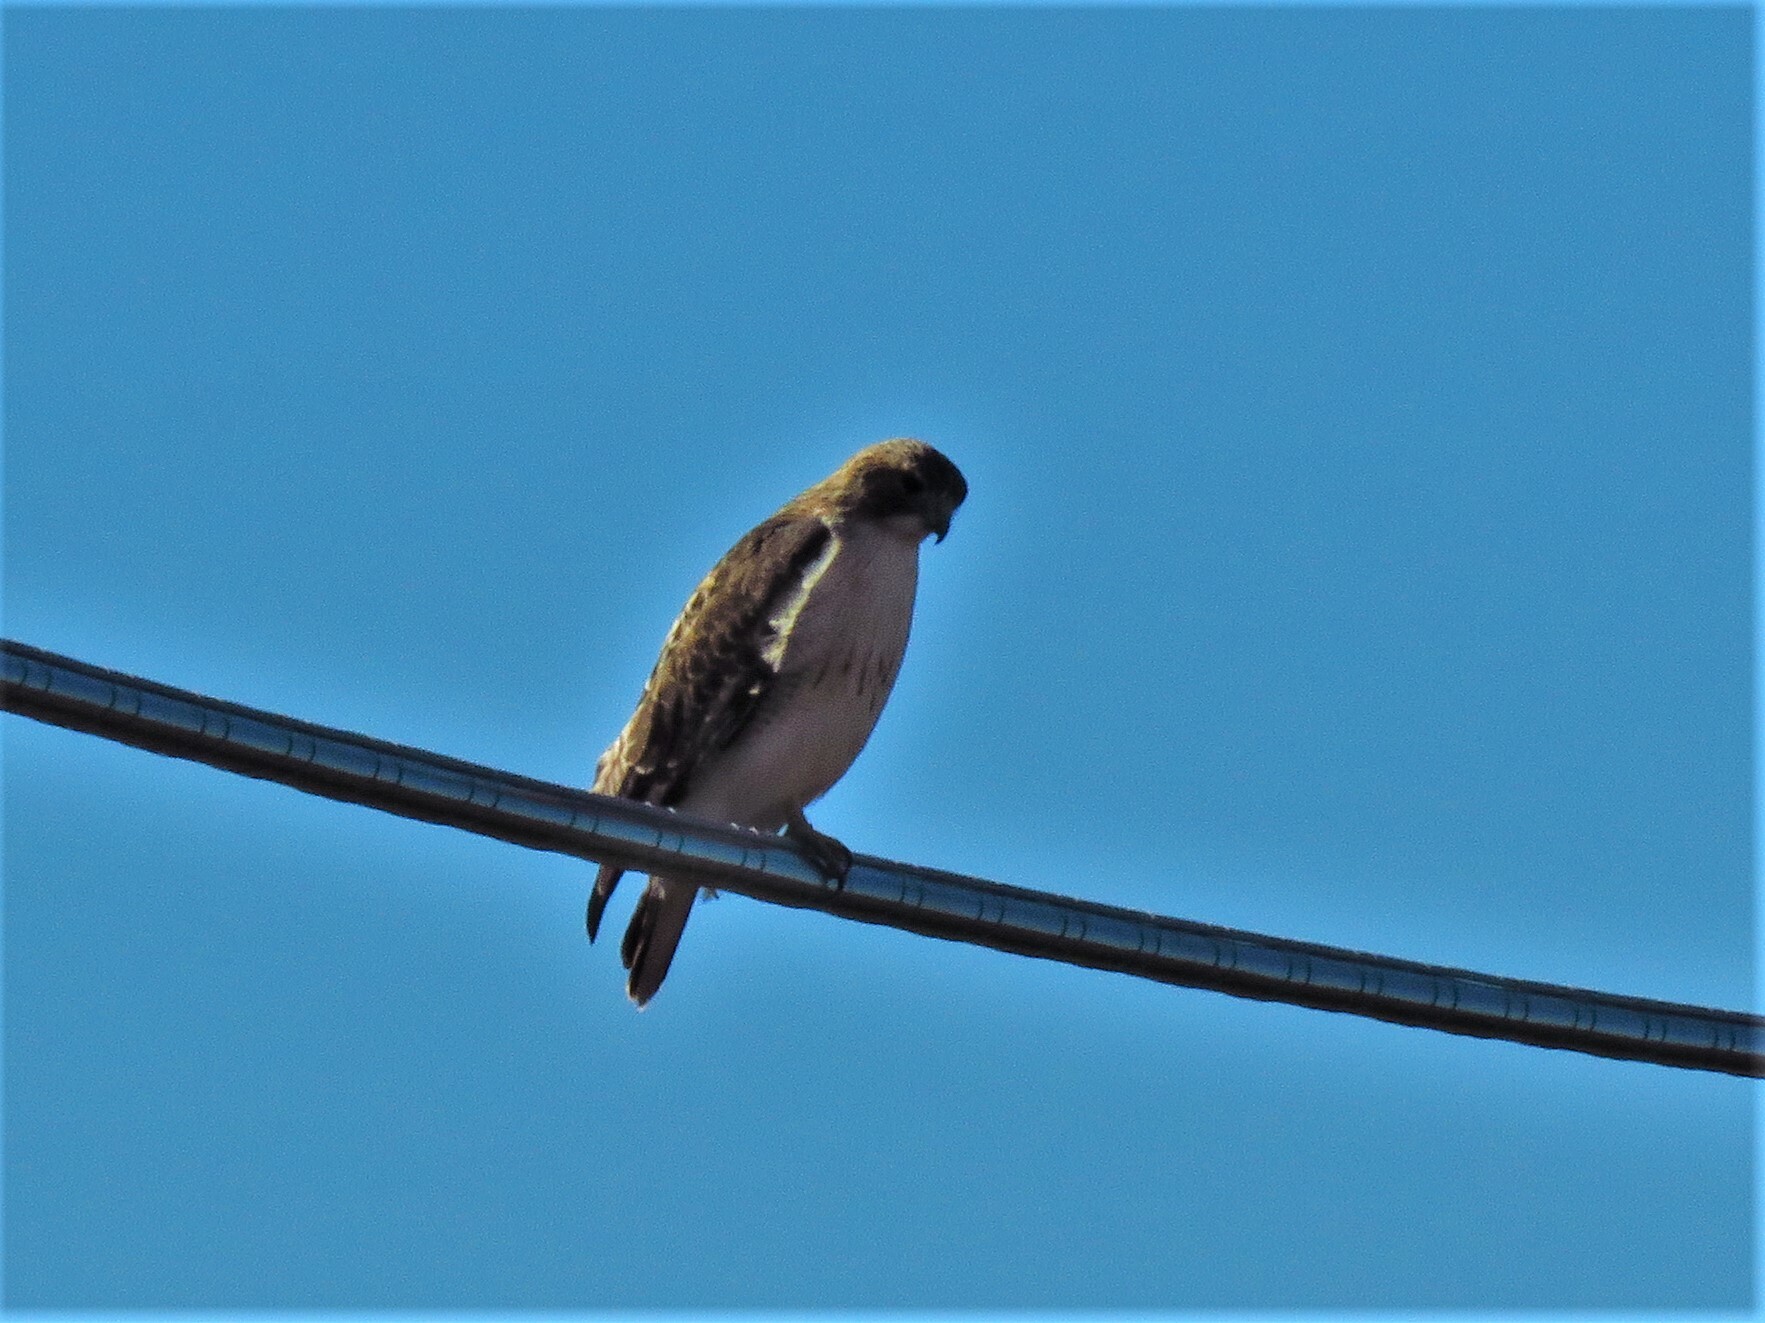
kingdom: Animalia
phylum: Chordata
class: Aves
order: Accipitriformes
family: Accipitridae
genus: Buteo
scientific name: Buteo jamaicensis
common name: Red-tailed hawk
